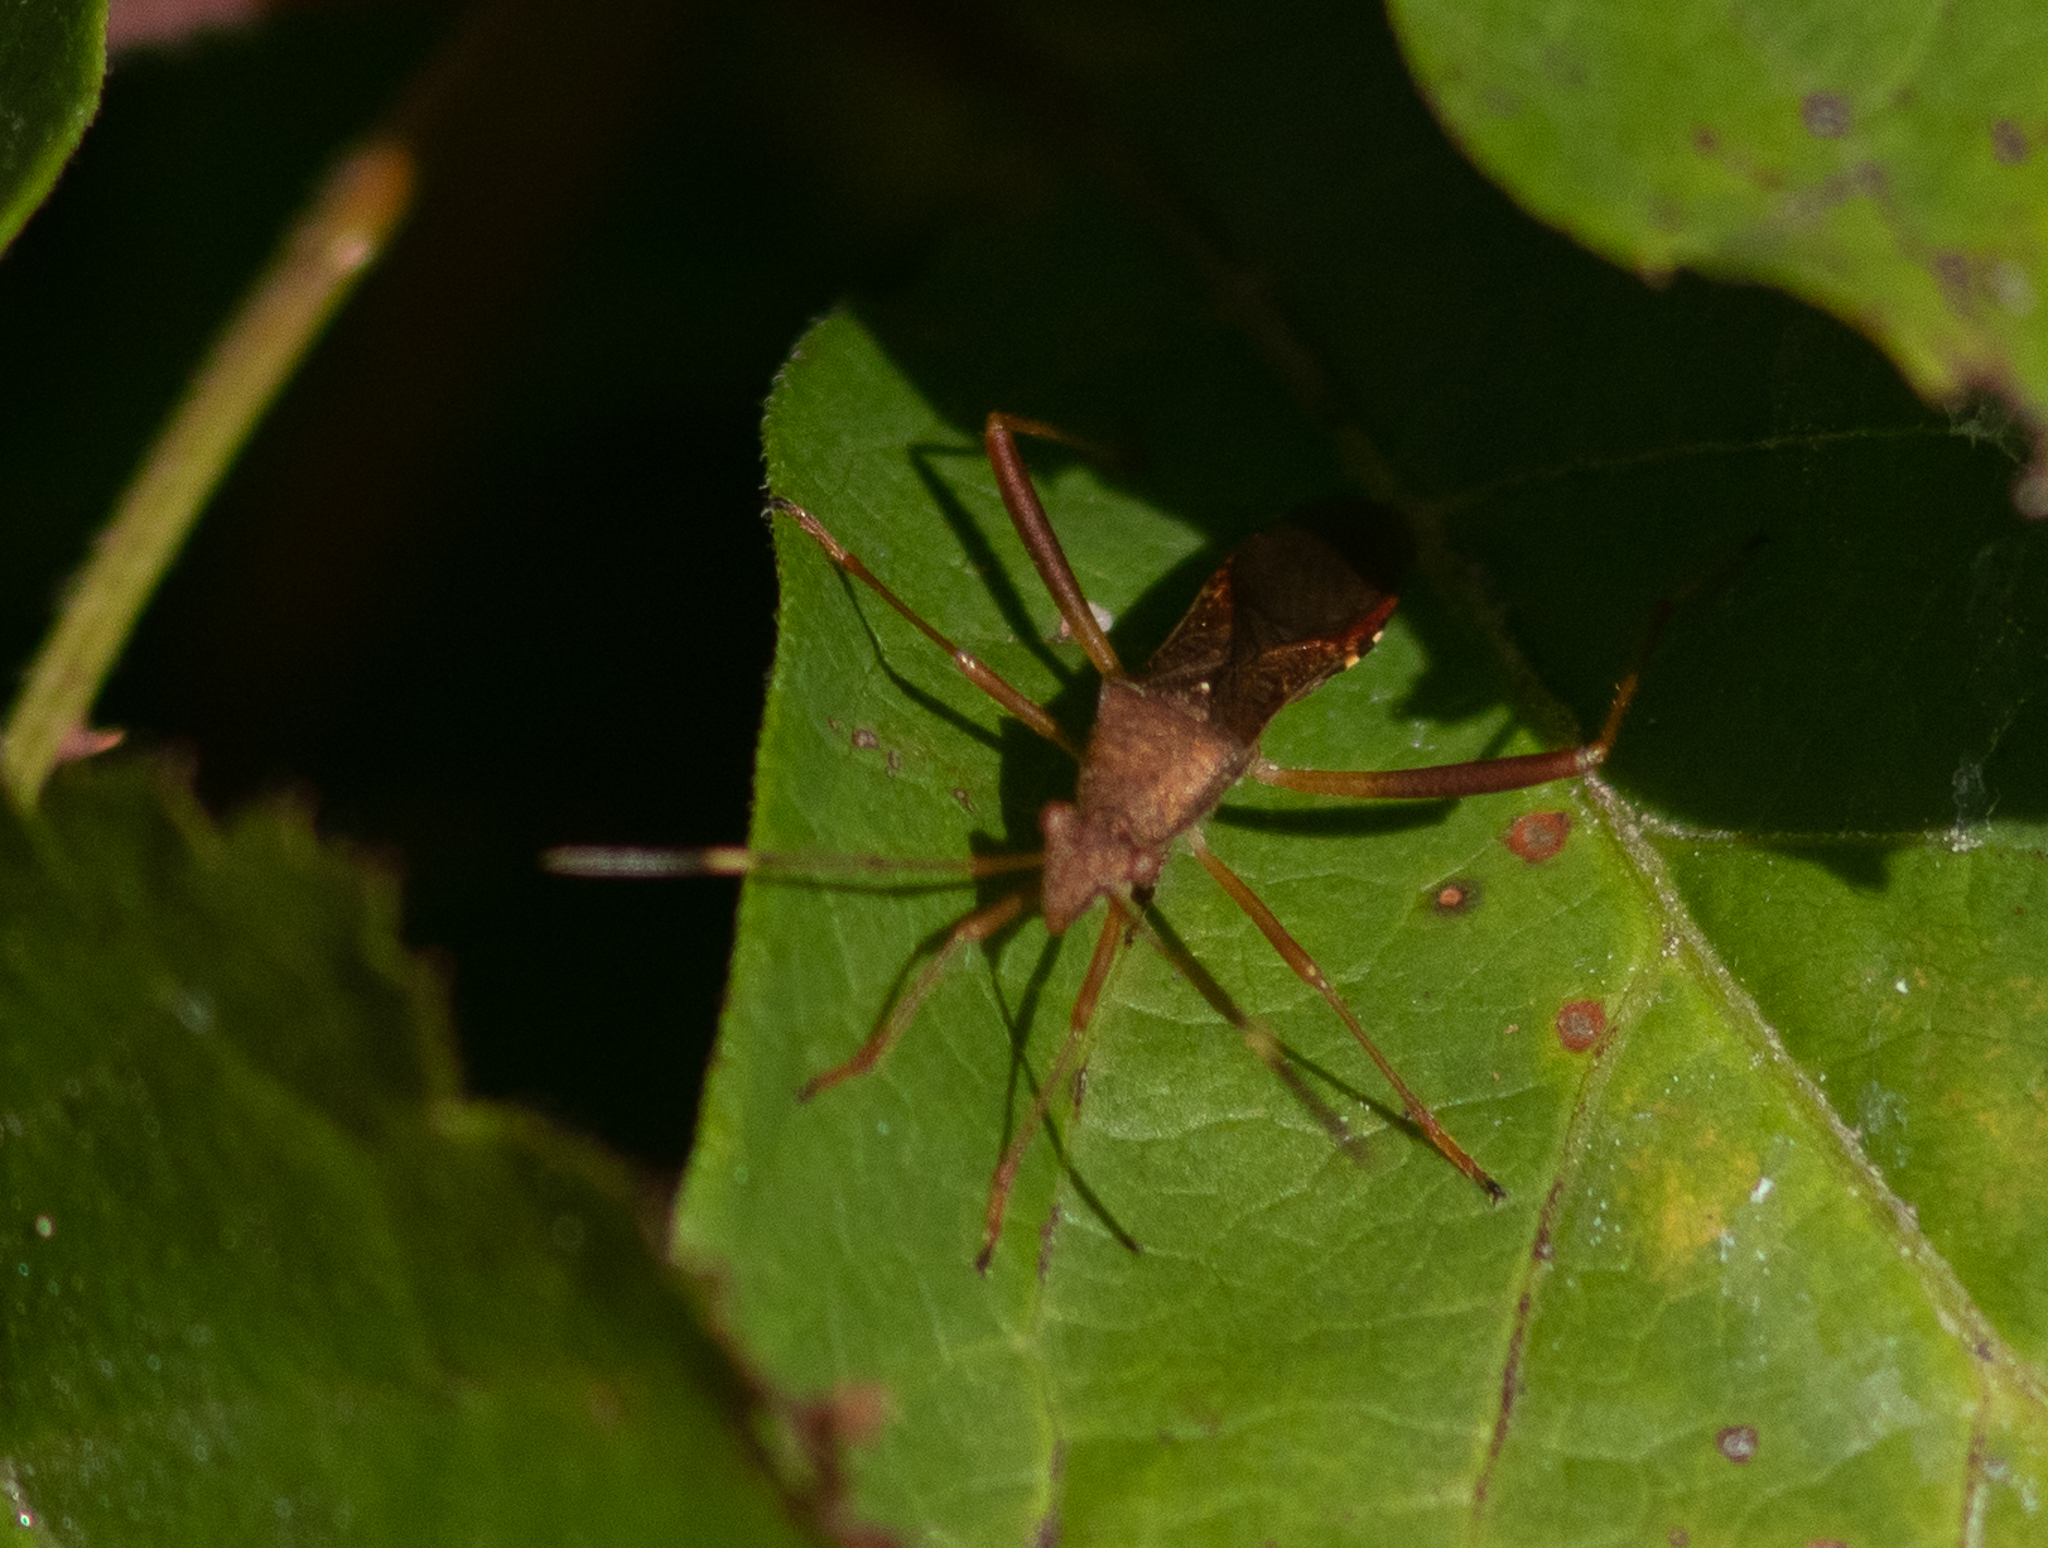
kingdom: Animalia
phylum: Arthropoda
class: Insecta
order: Hemiptera
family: Alydidae
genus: Megalotomus
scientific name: Megalotomus quinquespinosus
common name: Lupine bug
